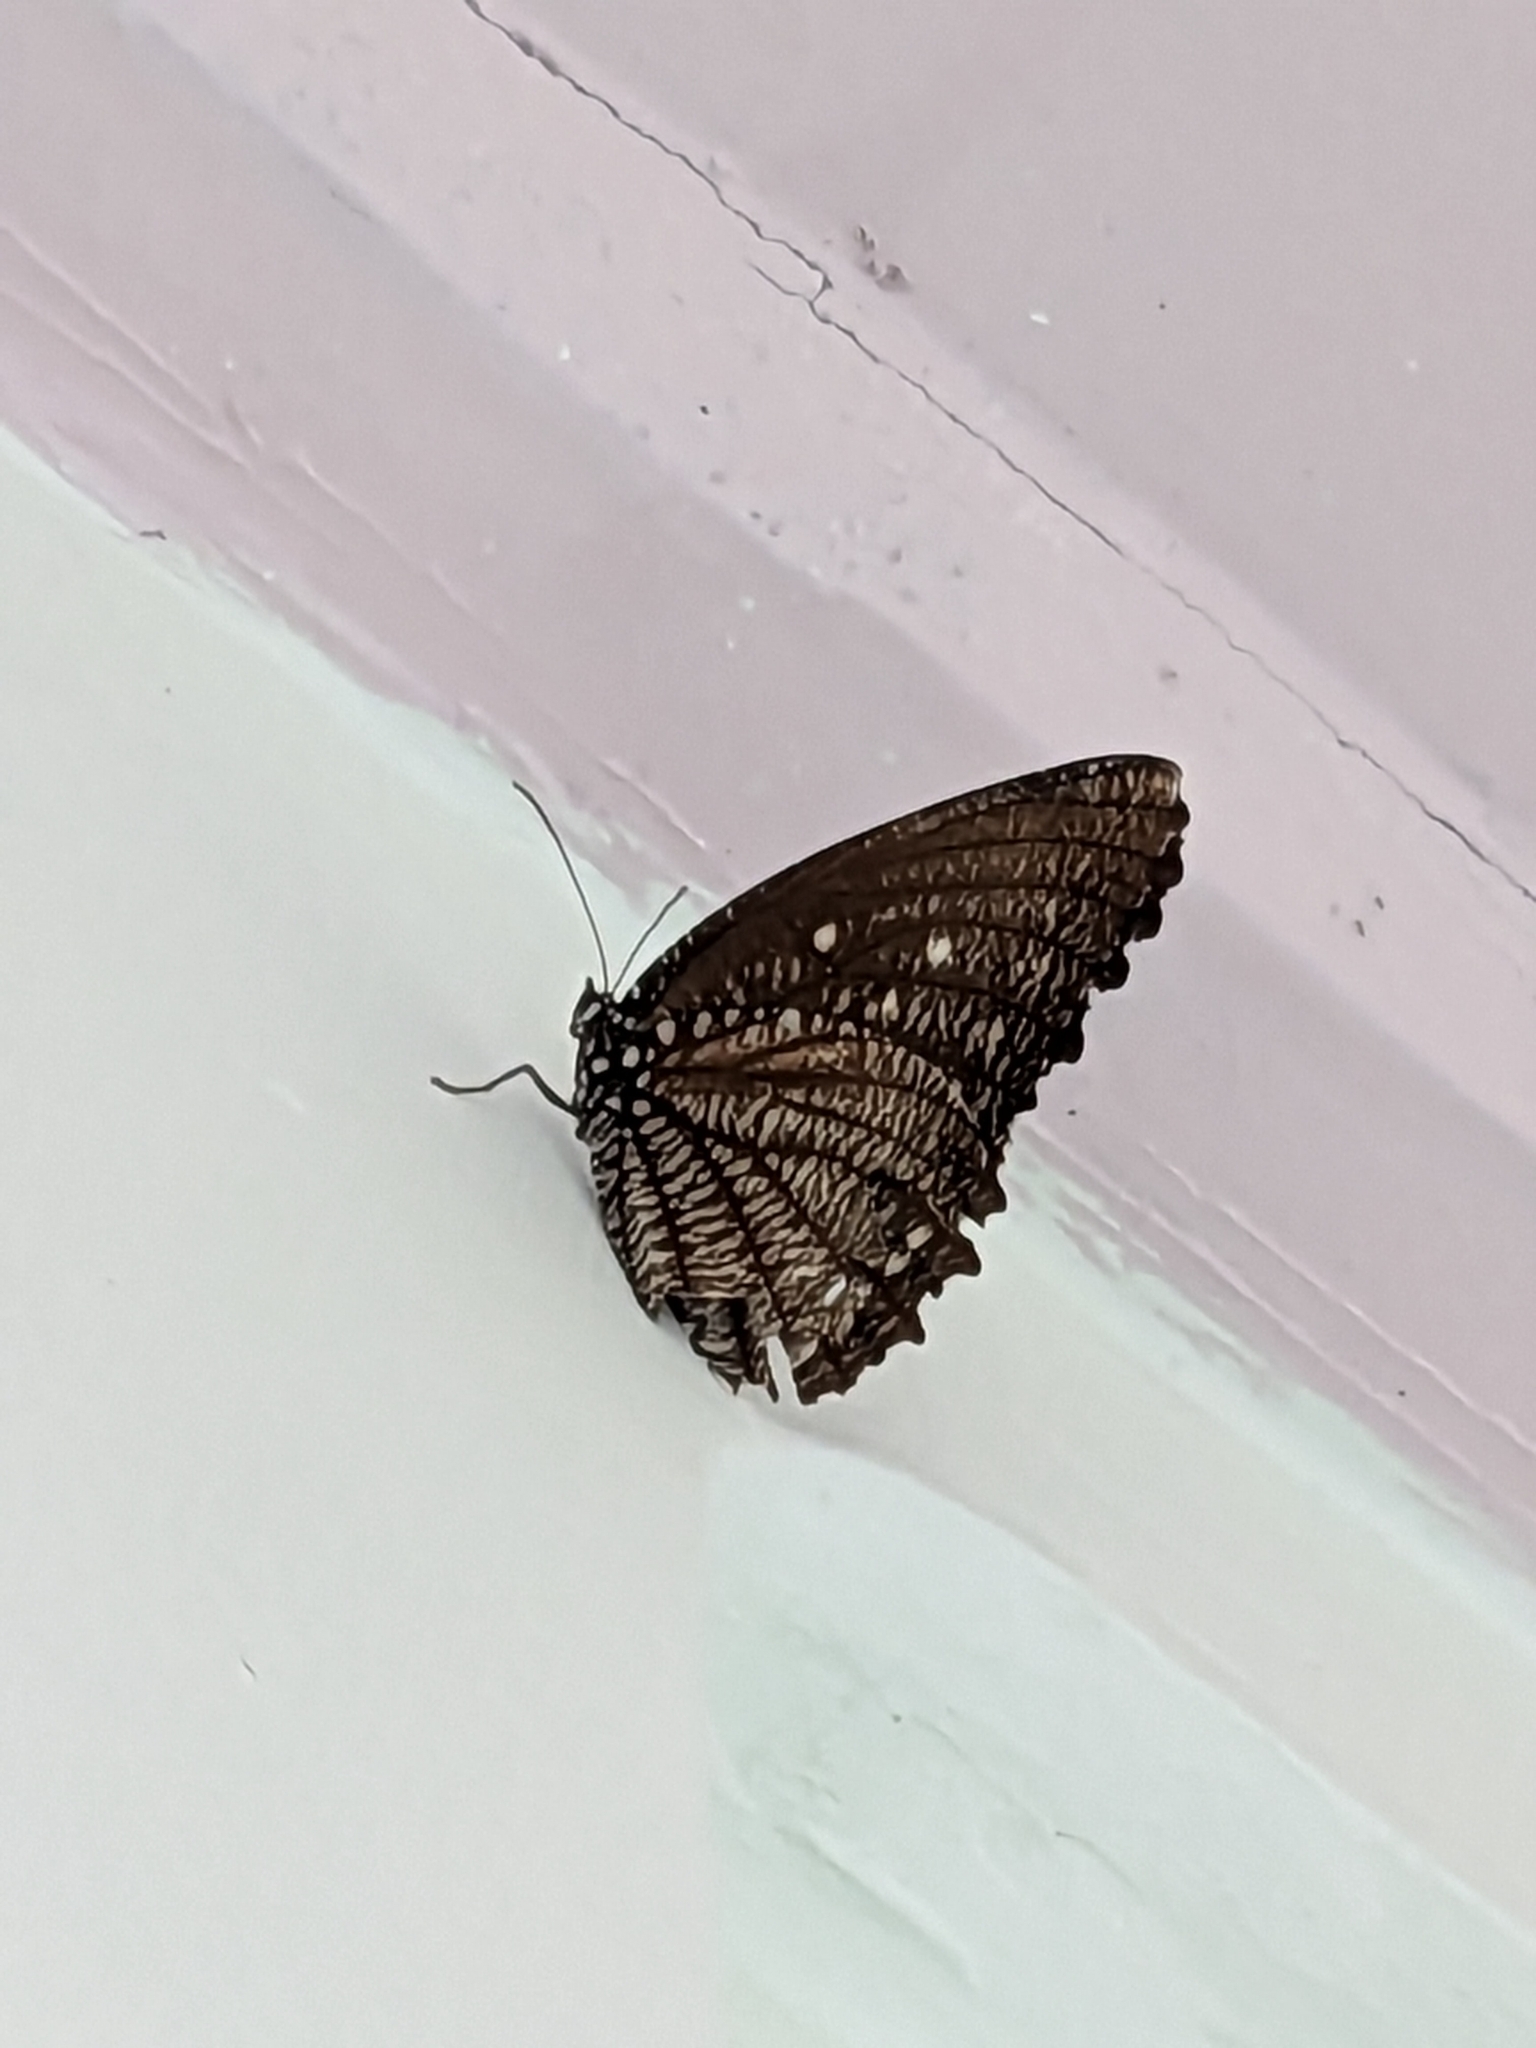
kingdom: Animalia
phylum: Arthropoda
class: Insecta
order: Lepidoptera
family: Nymphalidae
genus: Elymnias
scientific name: Elymnias malelas
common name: Spotted palmfly
